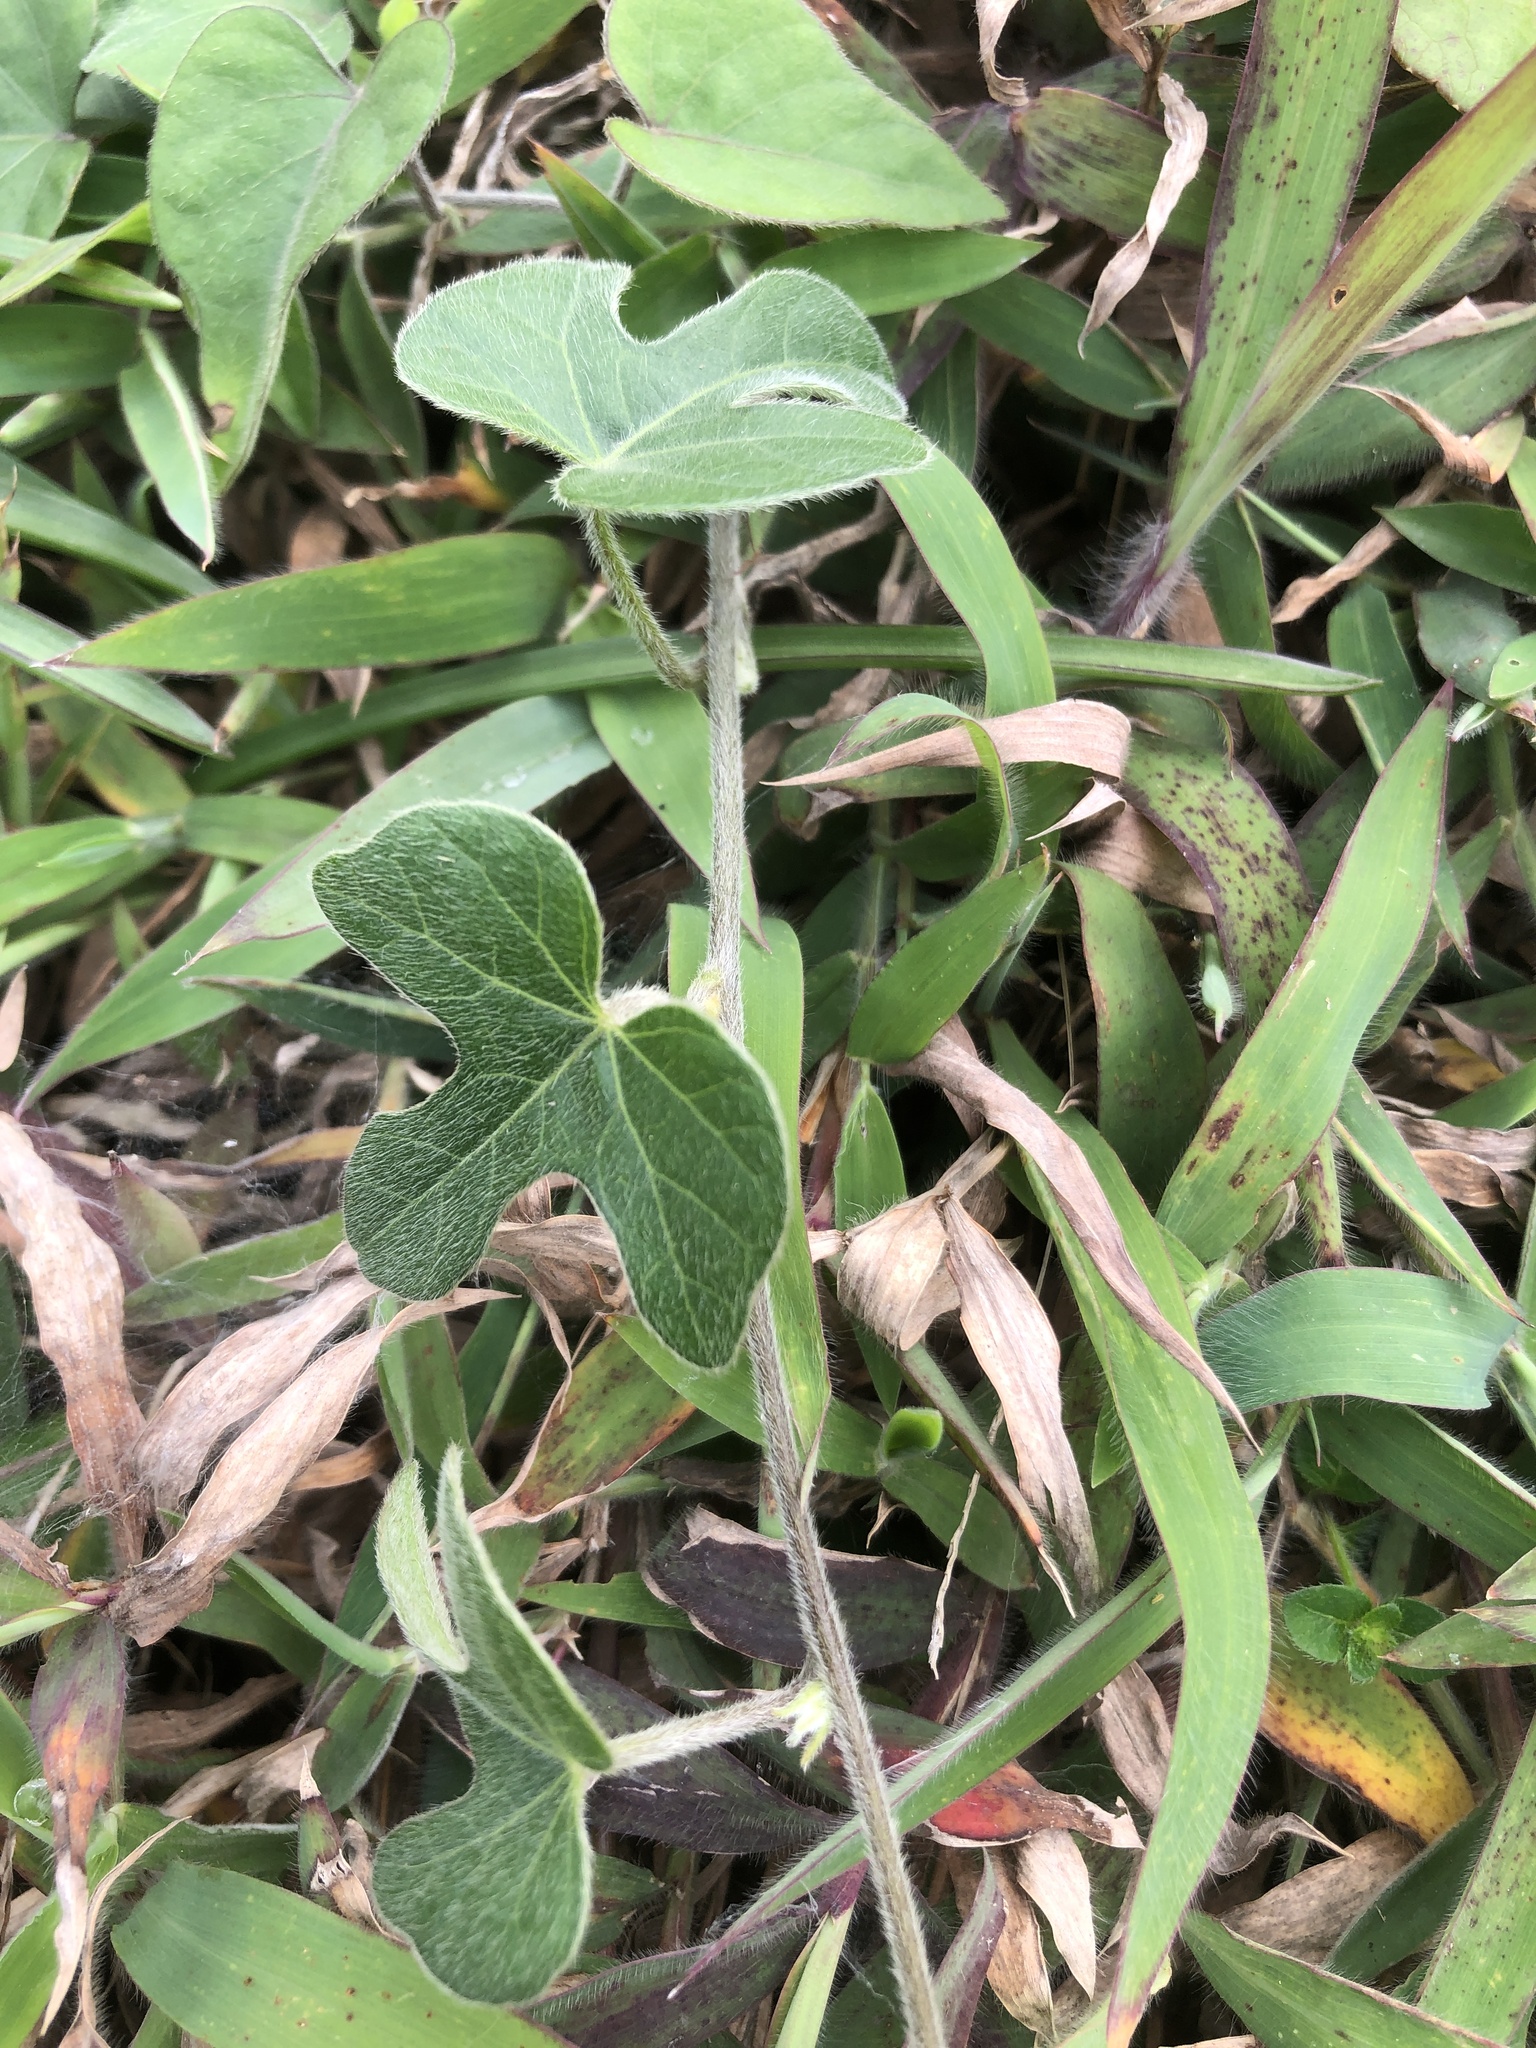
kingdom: Plantae
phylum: Tracheophyta
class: Magnoliopsida
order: Solanales
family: Convolvulaceae
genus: Ipomoea
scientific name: Ipomoea indica
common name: Blue dawnflower
